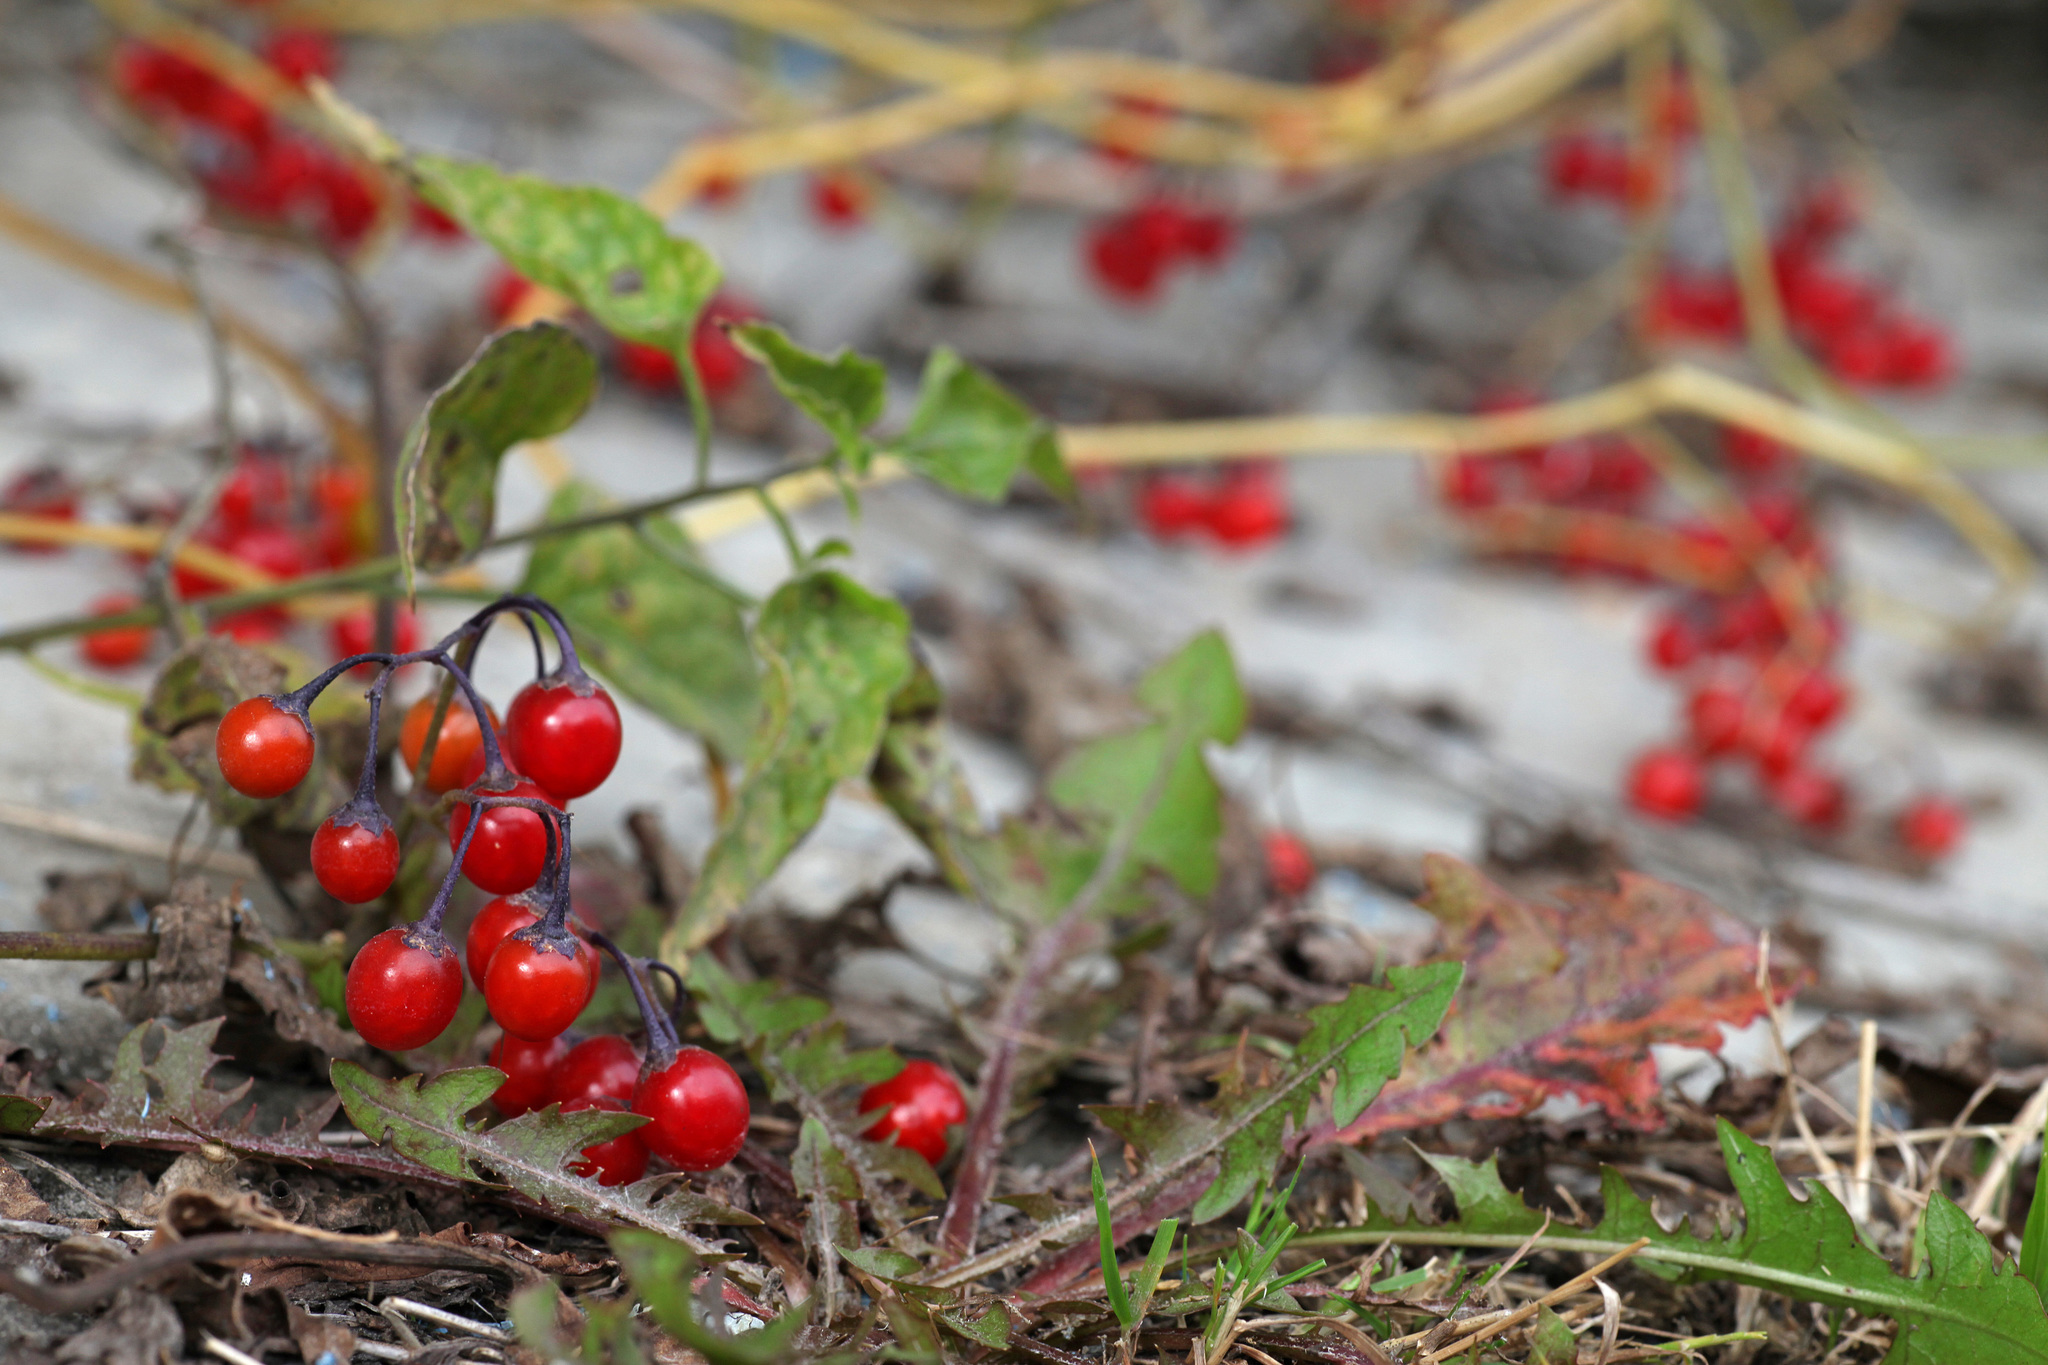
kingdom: Plantae
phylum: Tracheophyta
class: Magnoliopsida
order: Solanales
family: Solanaceae
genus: Solanum
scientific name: Solanum dulcamara
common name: Climbing nightshade
